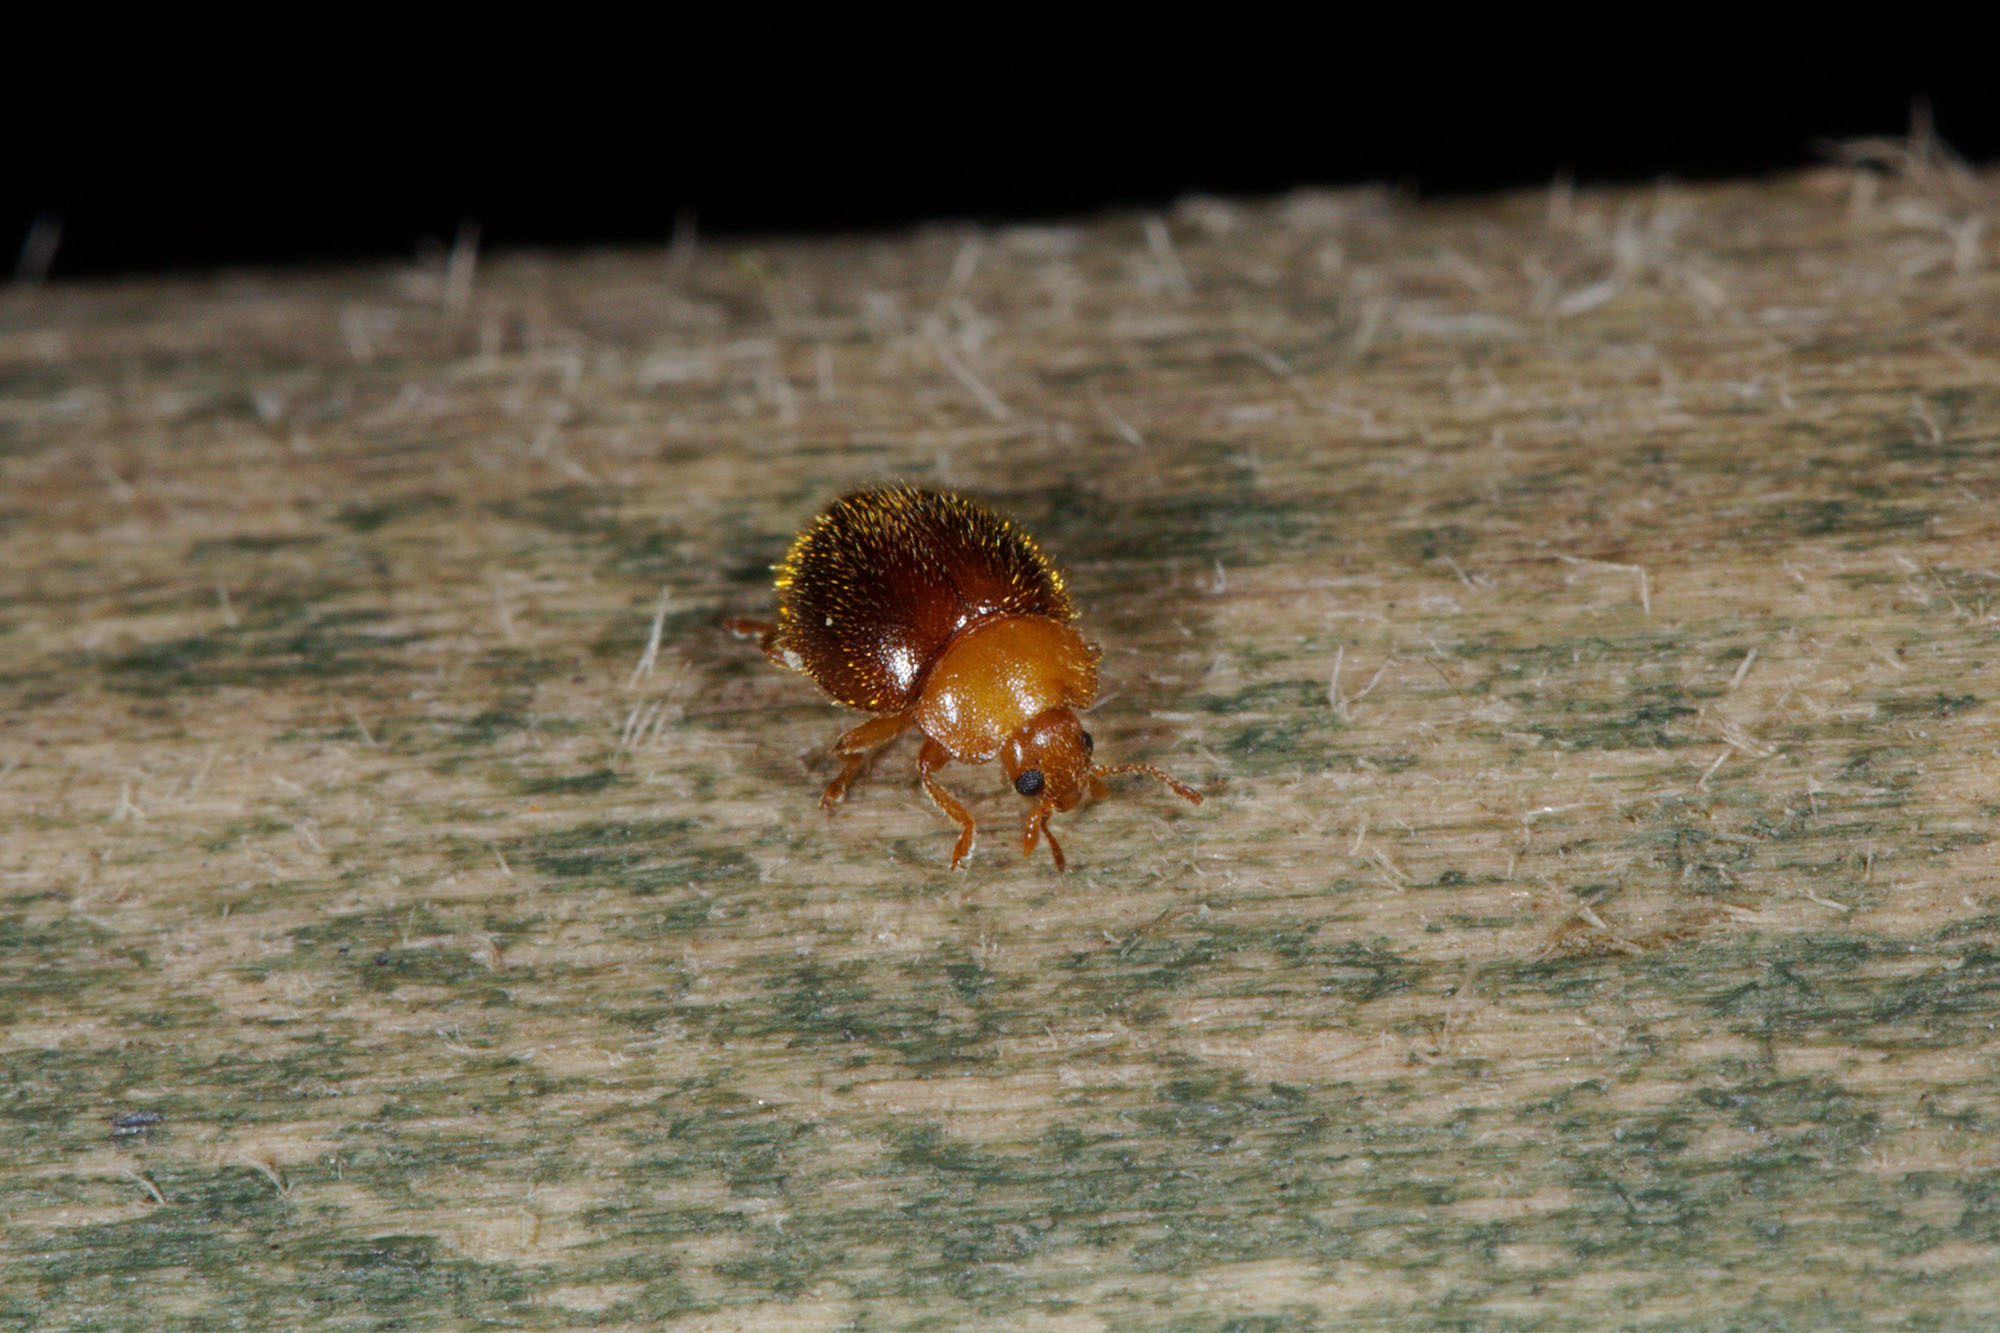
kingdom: Animalia
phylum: Arthropoda
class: Insecta
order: Coleoptera
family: Coccinellidae
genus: Adoxellus
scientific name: Adoxellus
